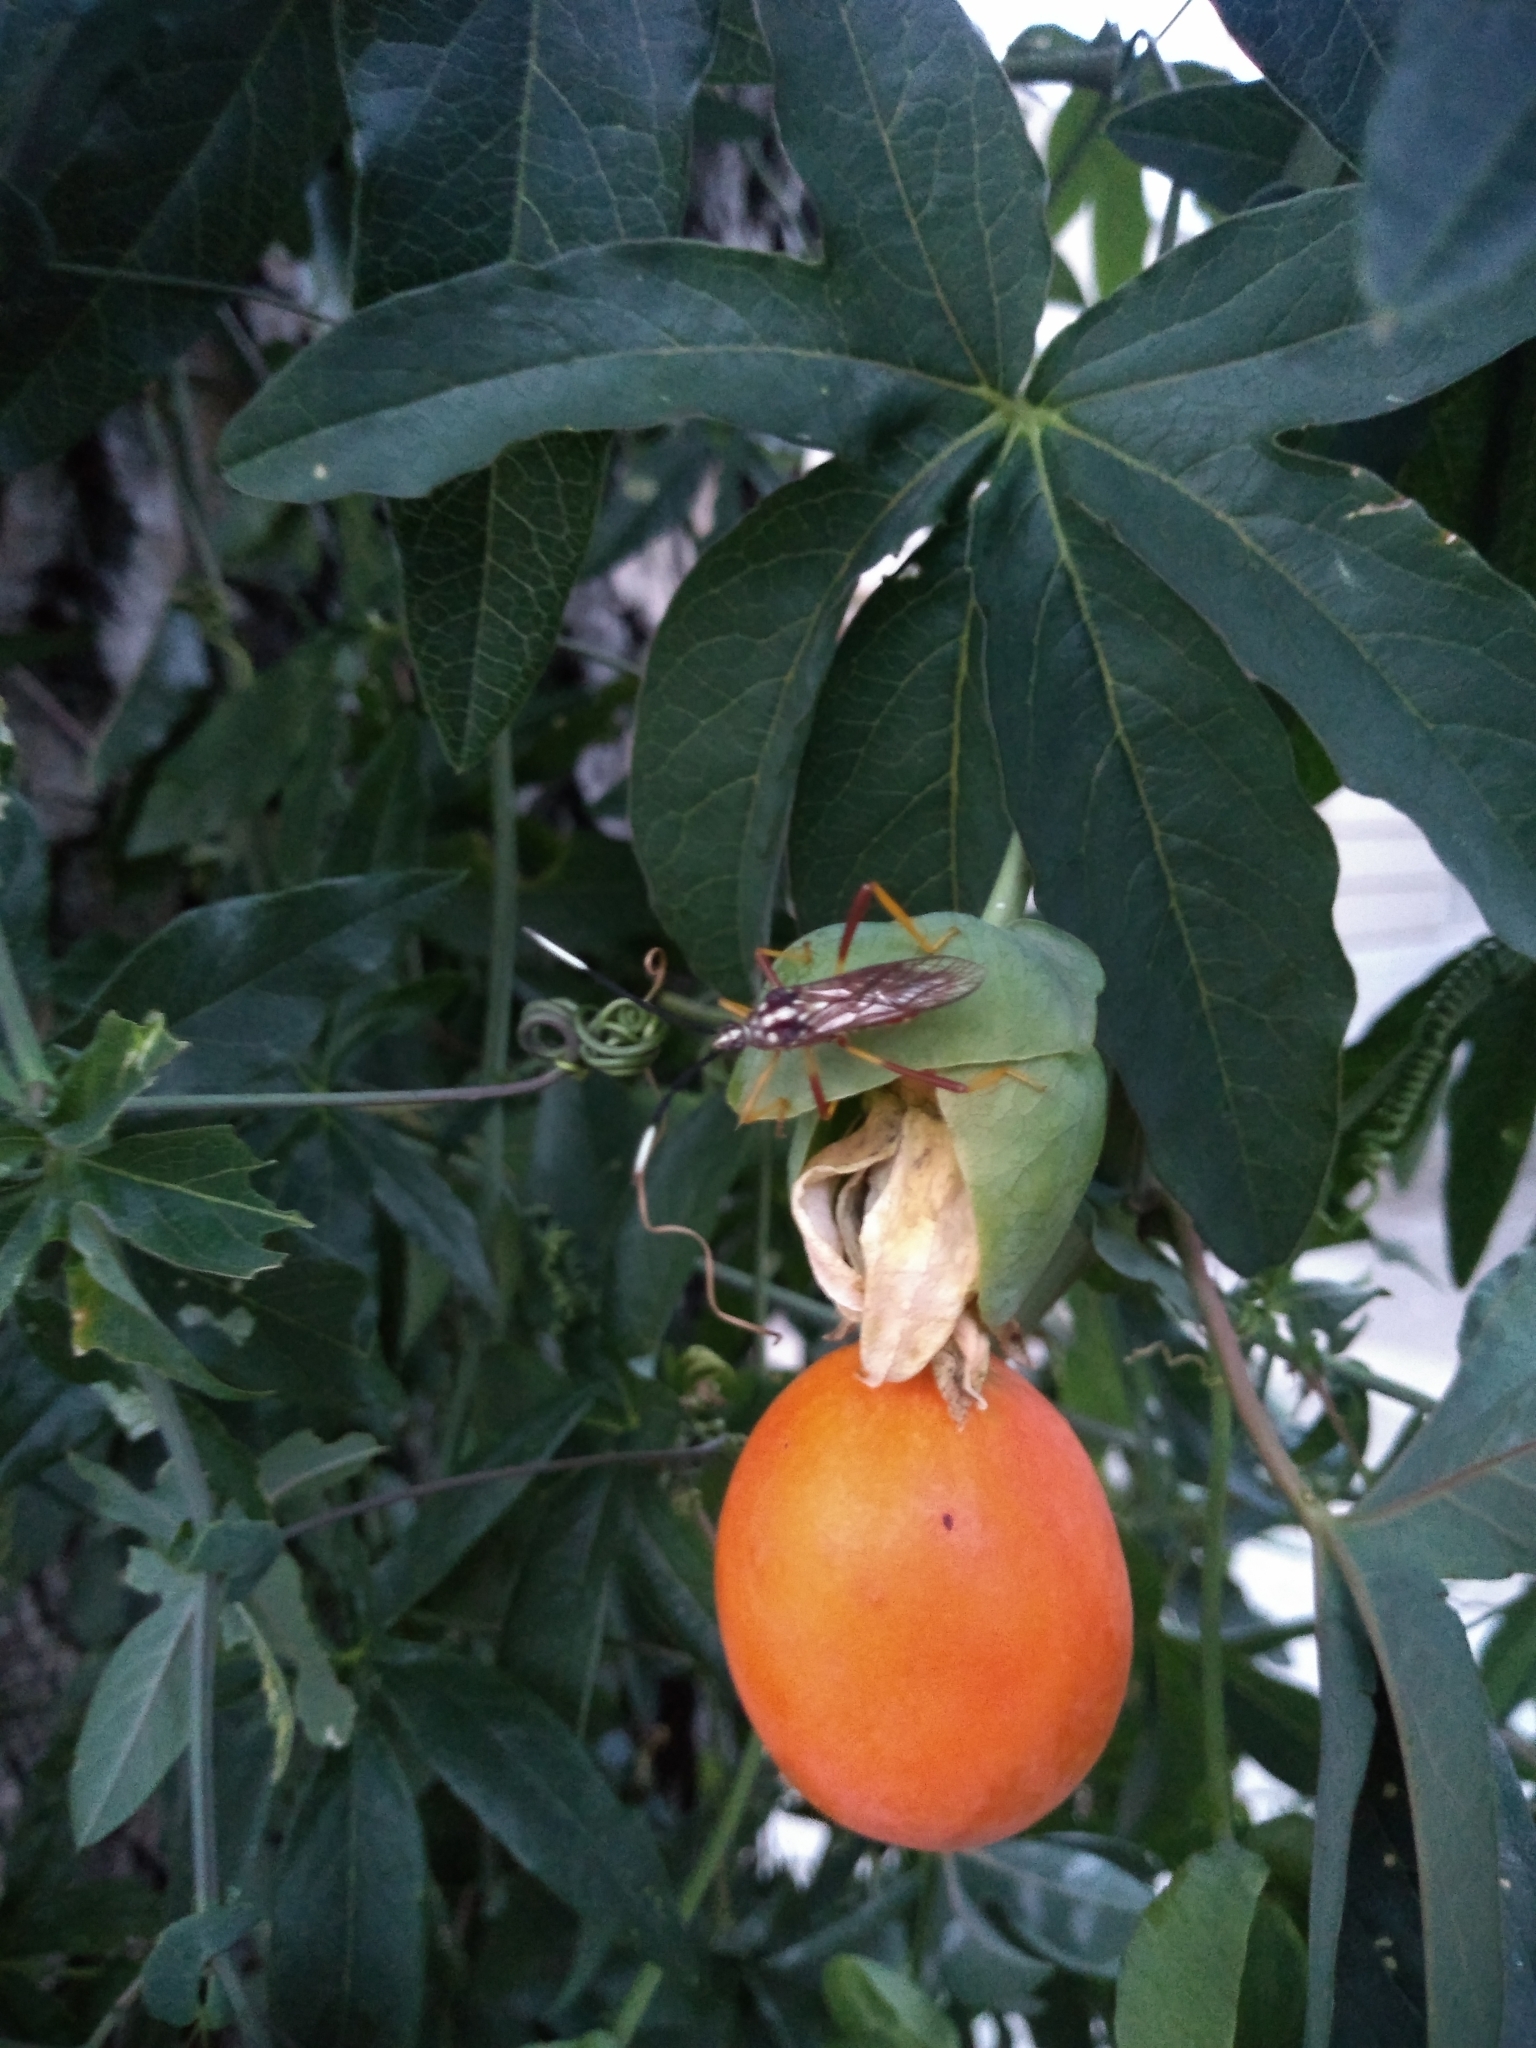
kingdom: Animalia
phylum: Arthropoda
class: Insecta
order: Hemiptera
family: Coreidae
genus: Holhymenia
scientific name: Holhymenia histrio
